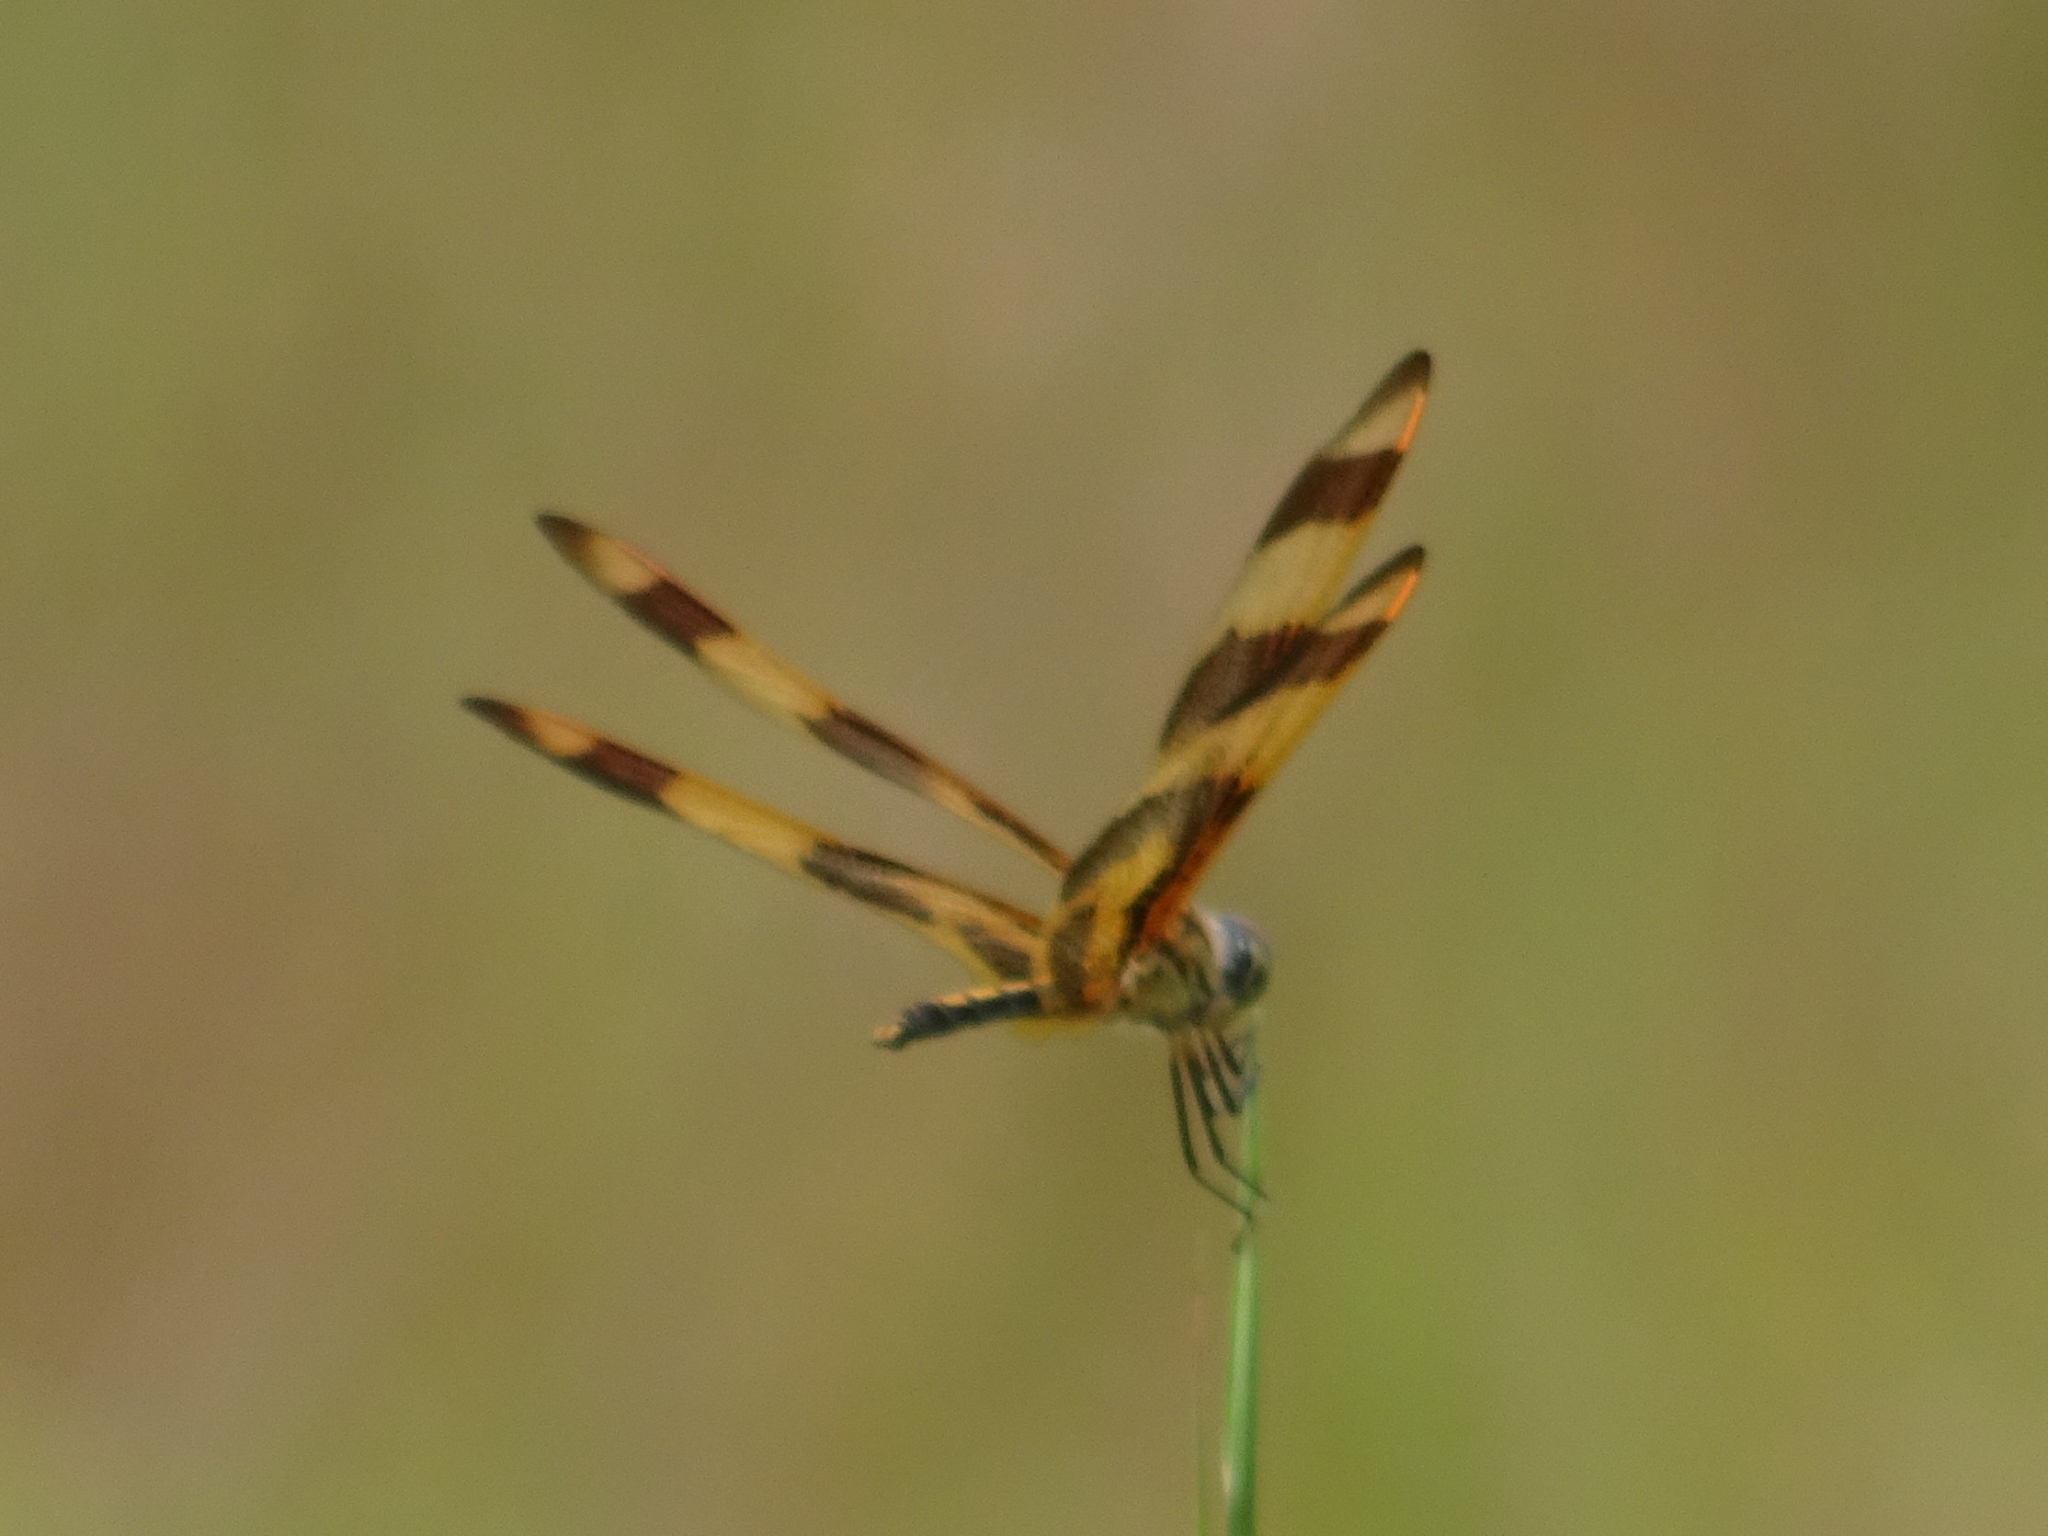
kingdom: Animalia
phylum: Arthropoda
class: Insecta
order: Odonata
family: Libellulidae
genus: Celithemis
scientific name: Celithemis eponina
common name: Halloween pennant
